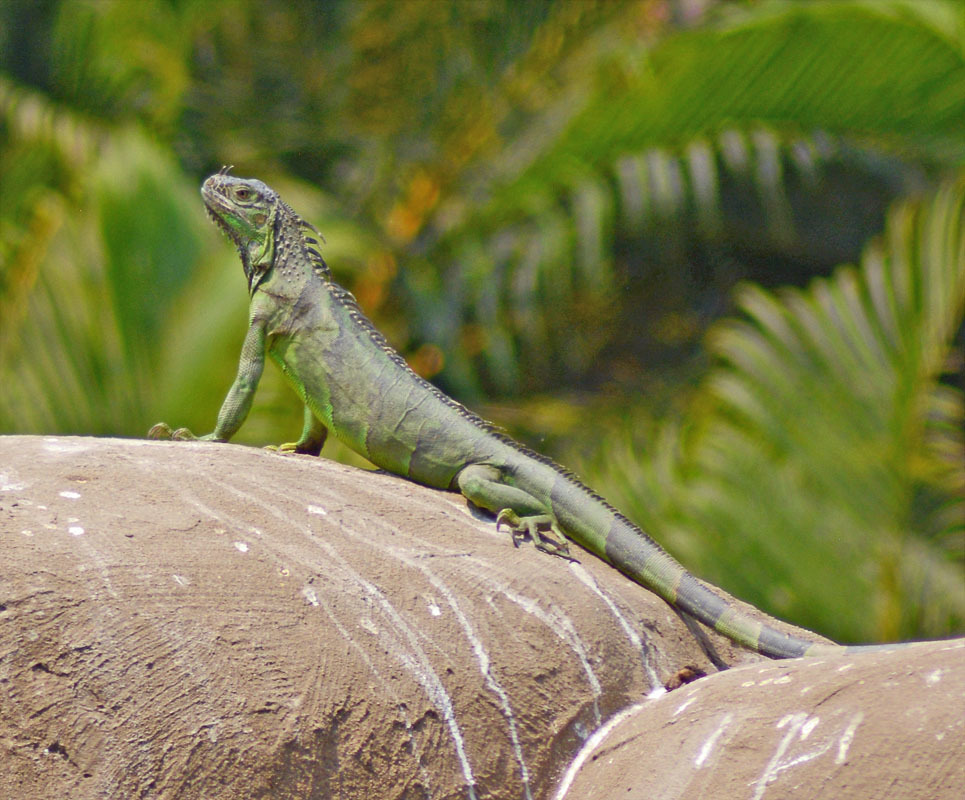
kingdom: Animalia
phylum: Chordata
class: Squamata
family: Iguanidae
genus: Iguana
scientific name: Iguana iguana
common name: Green iguana
